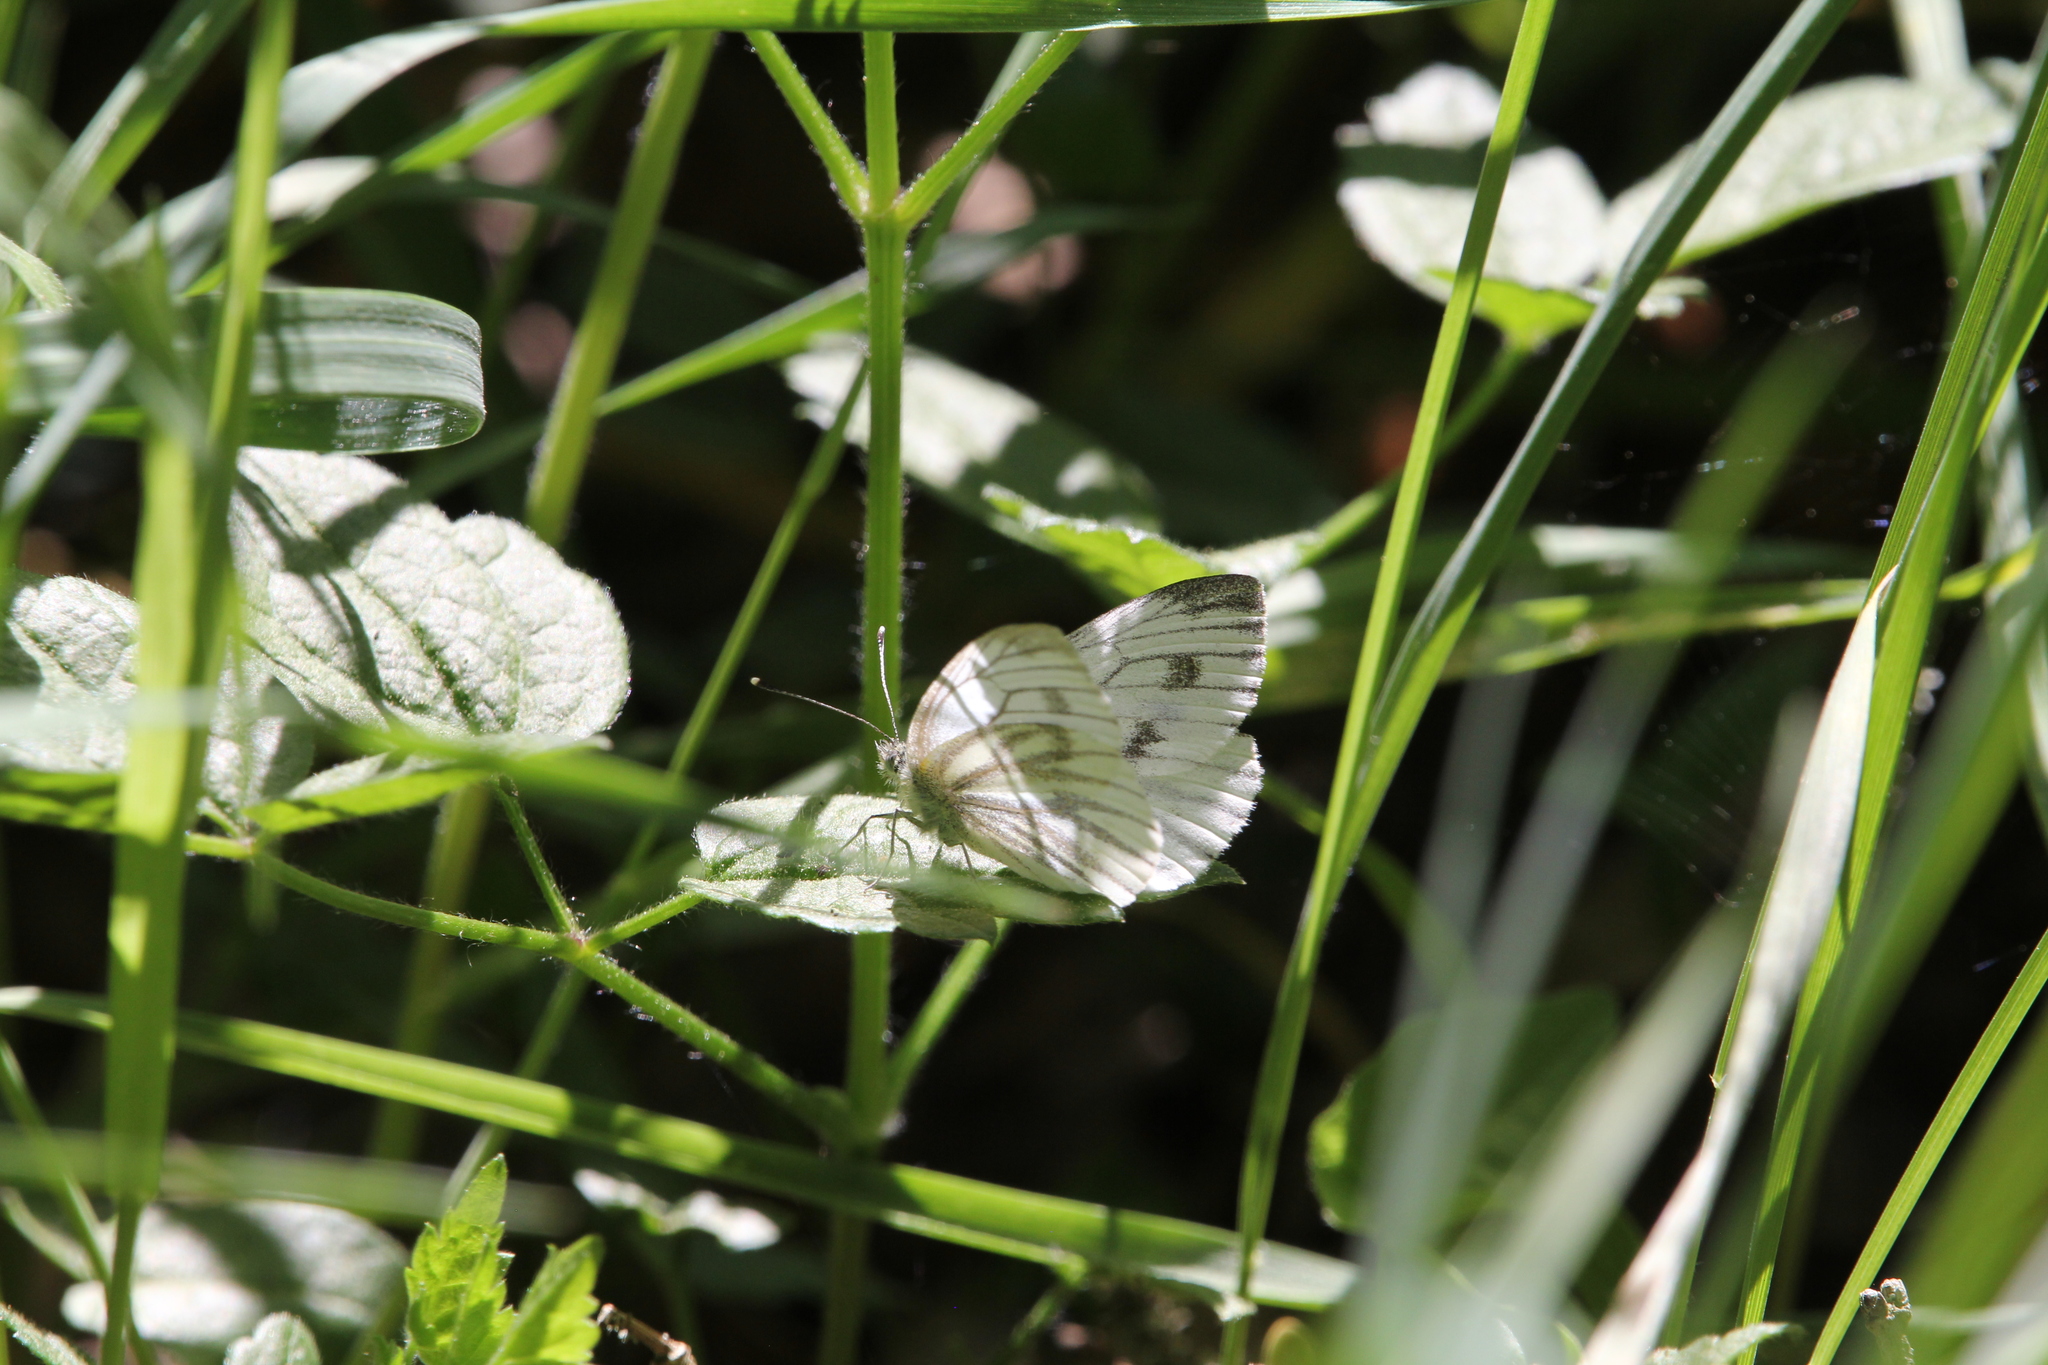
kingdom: Animalia
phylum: Arthropoda
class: Insecta
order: Lepidoptera
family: Pieridae
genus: Pieris
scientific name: Pieris napi
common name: Green-veined white
